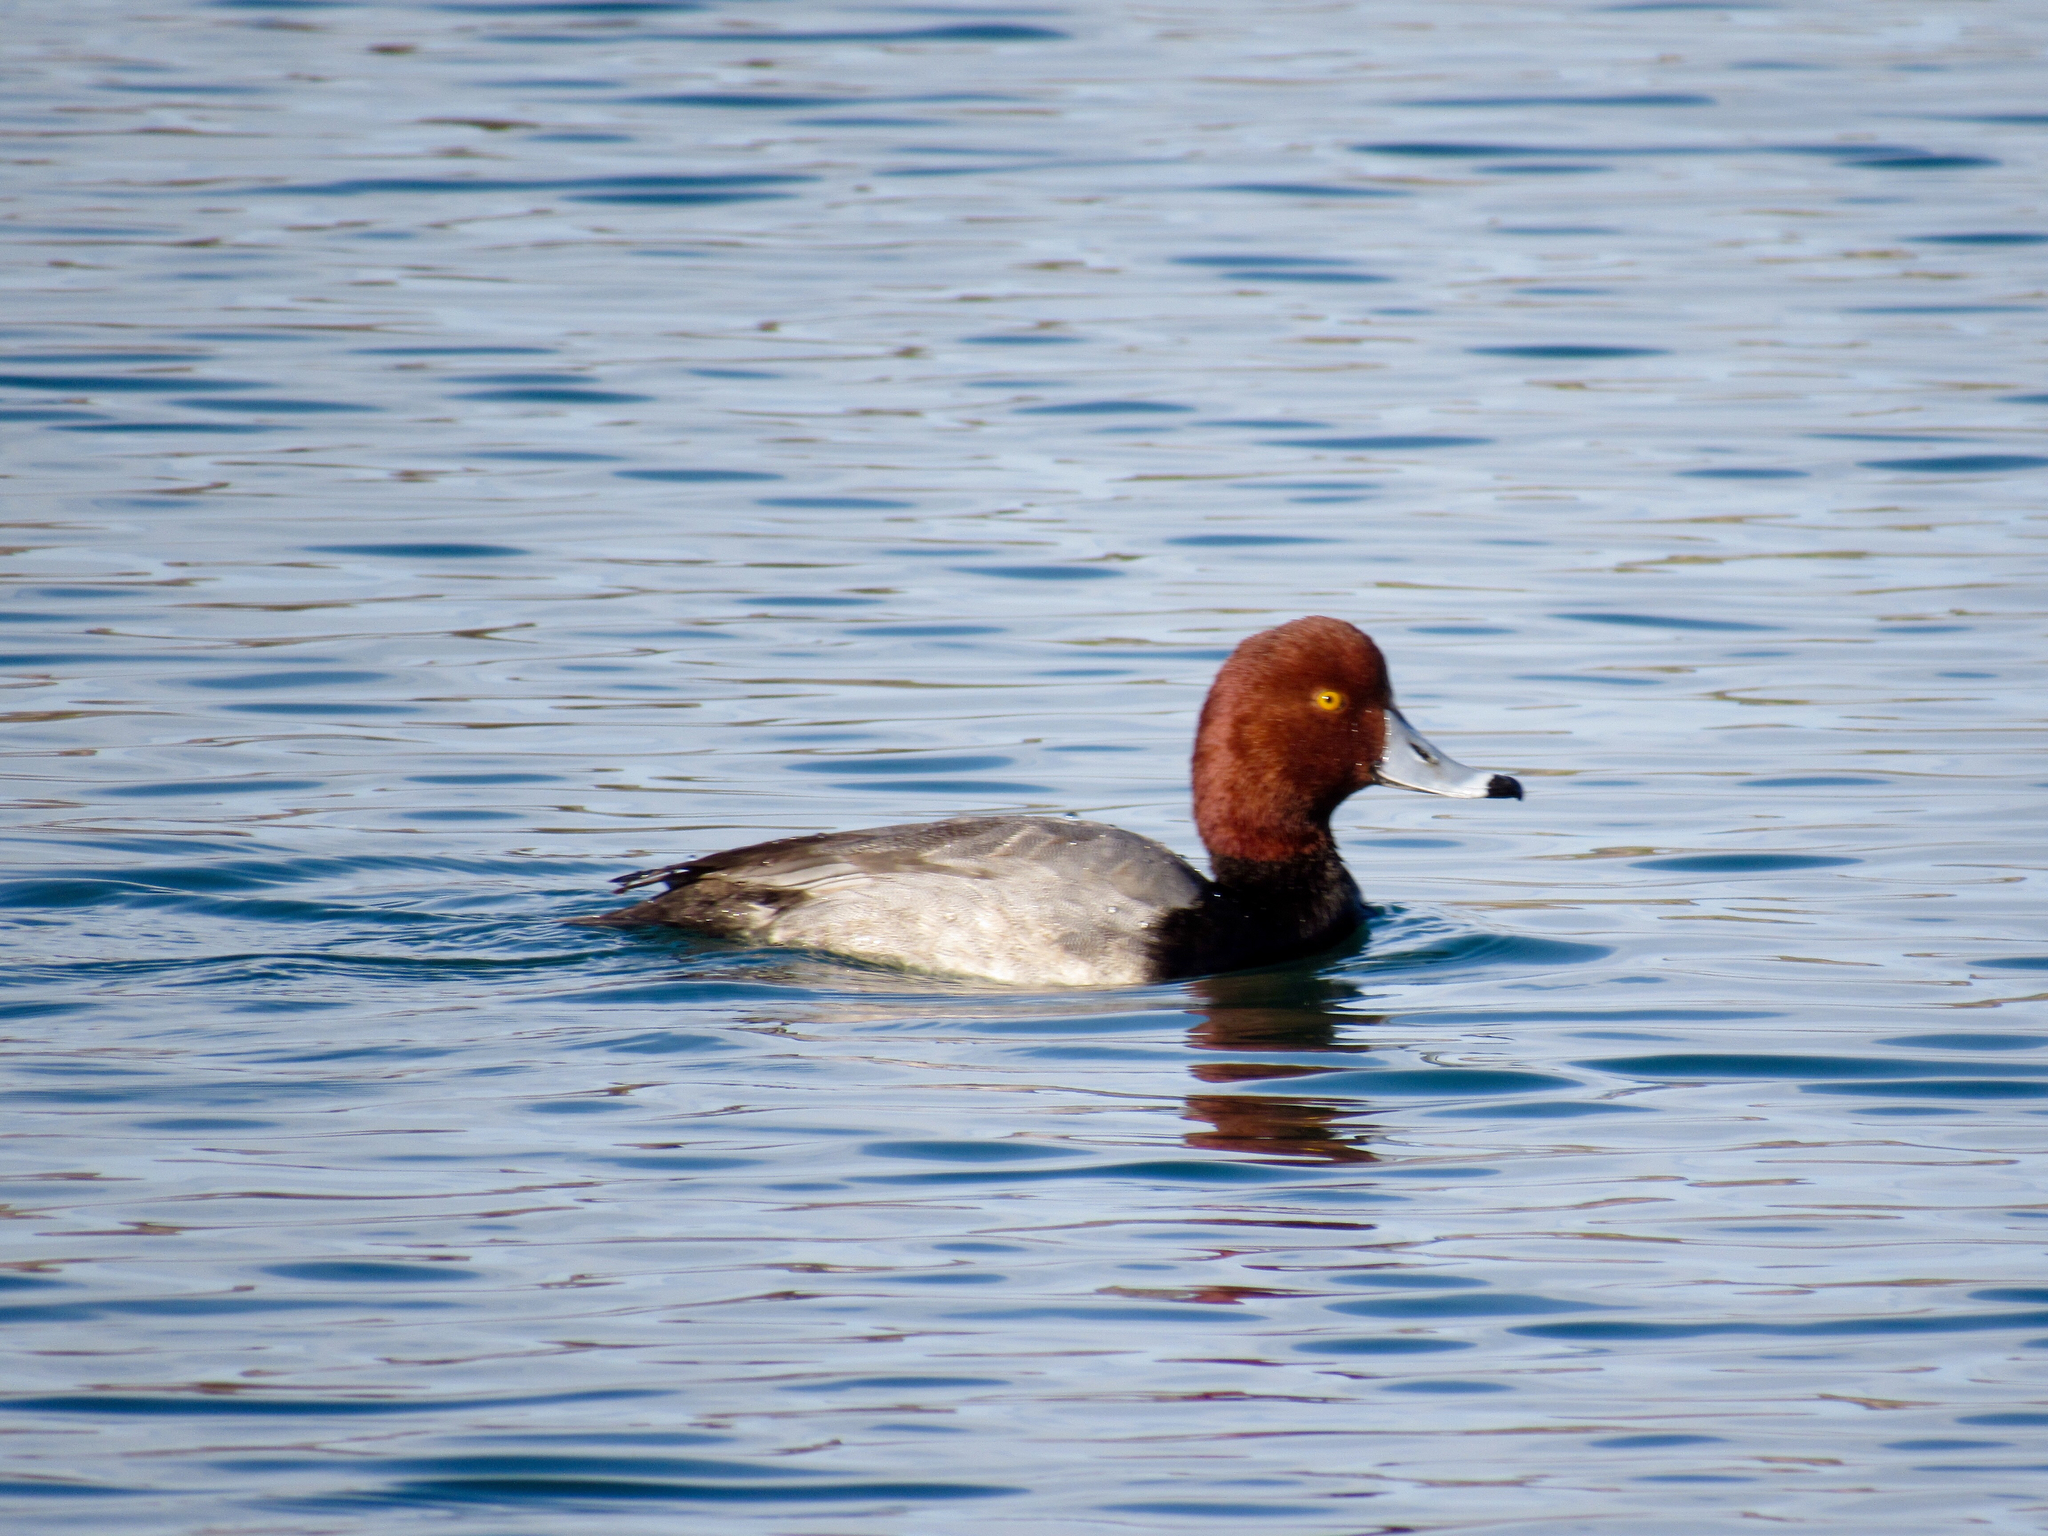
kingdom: Animalia
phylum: Chordata
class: Aves
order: Anseriformes
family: Anatidae
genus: Aythya
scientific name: Aythya americana
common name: Redhead
